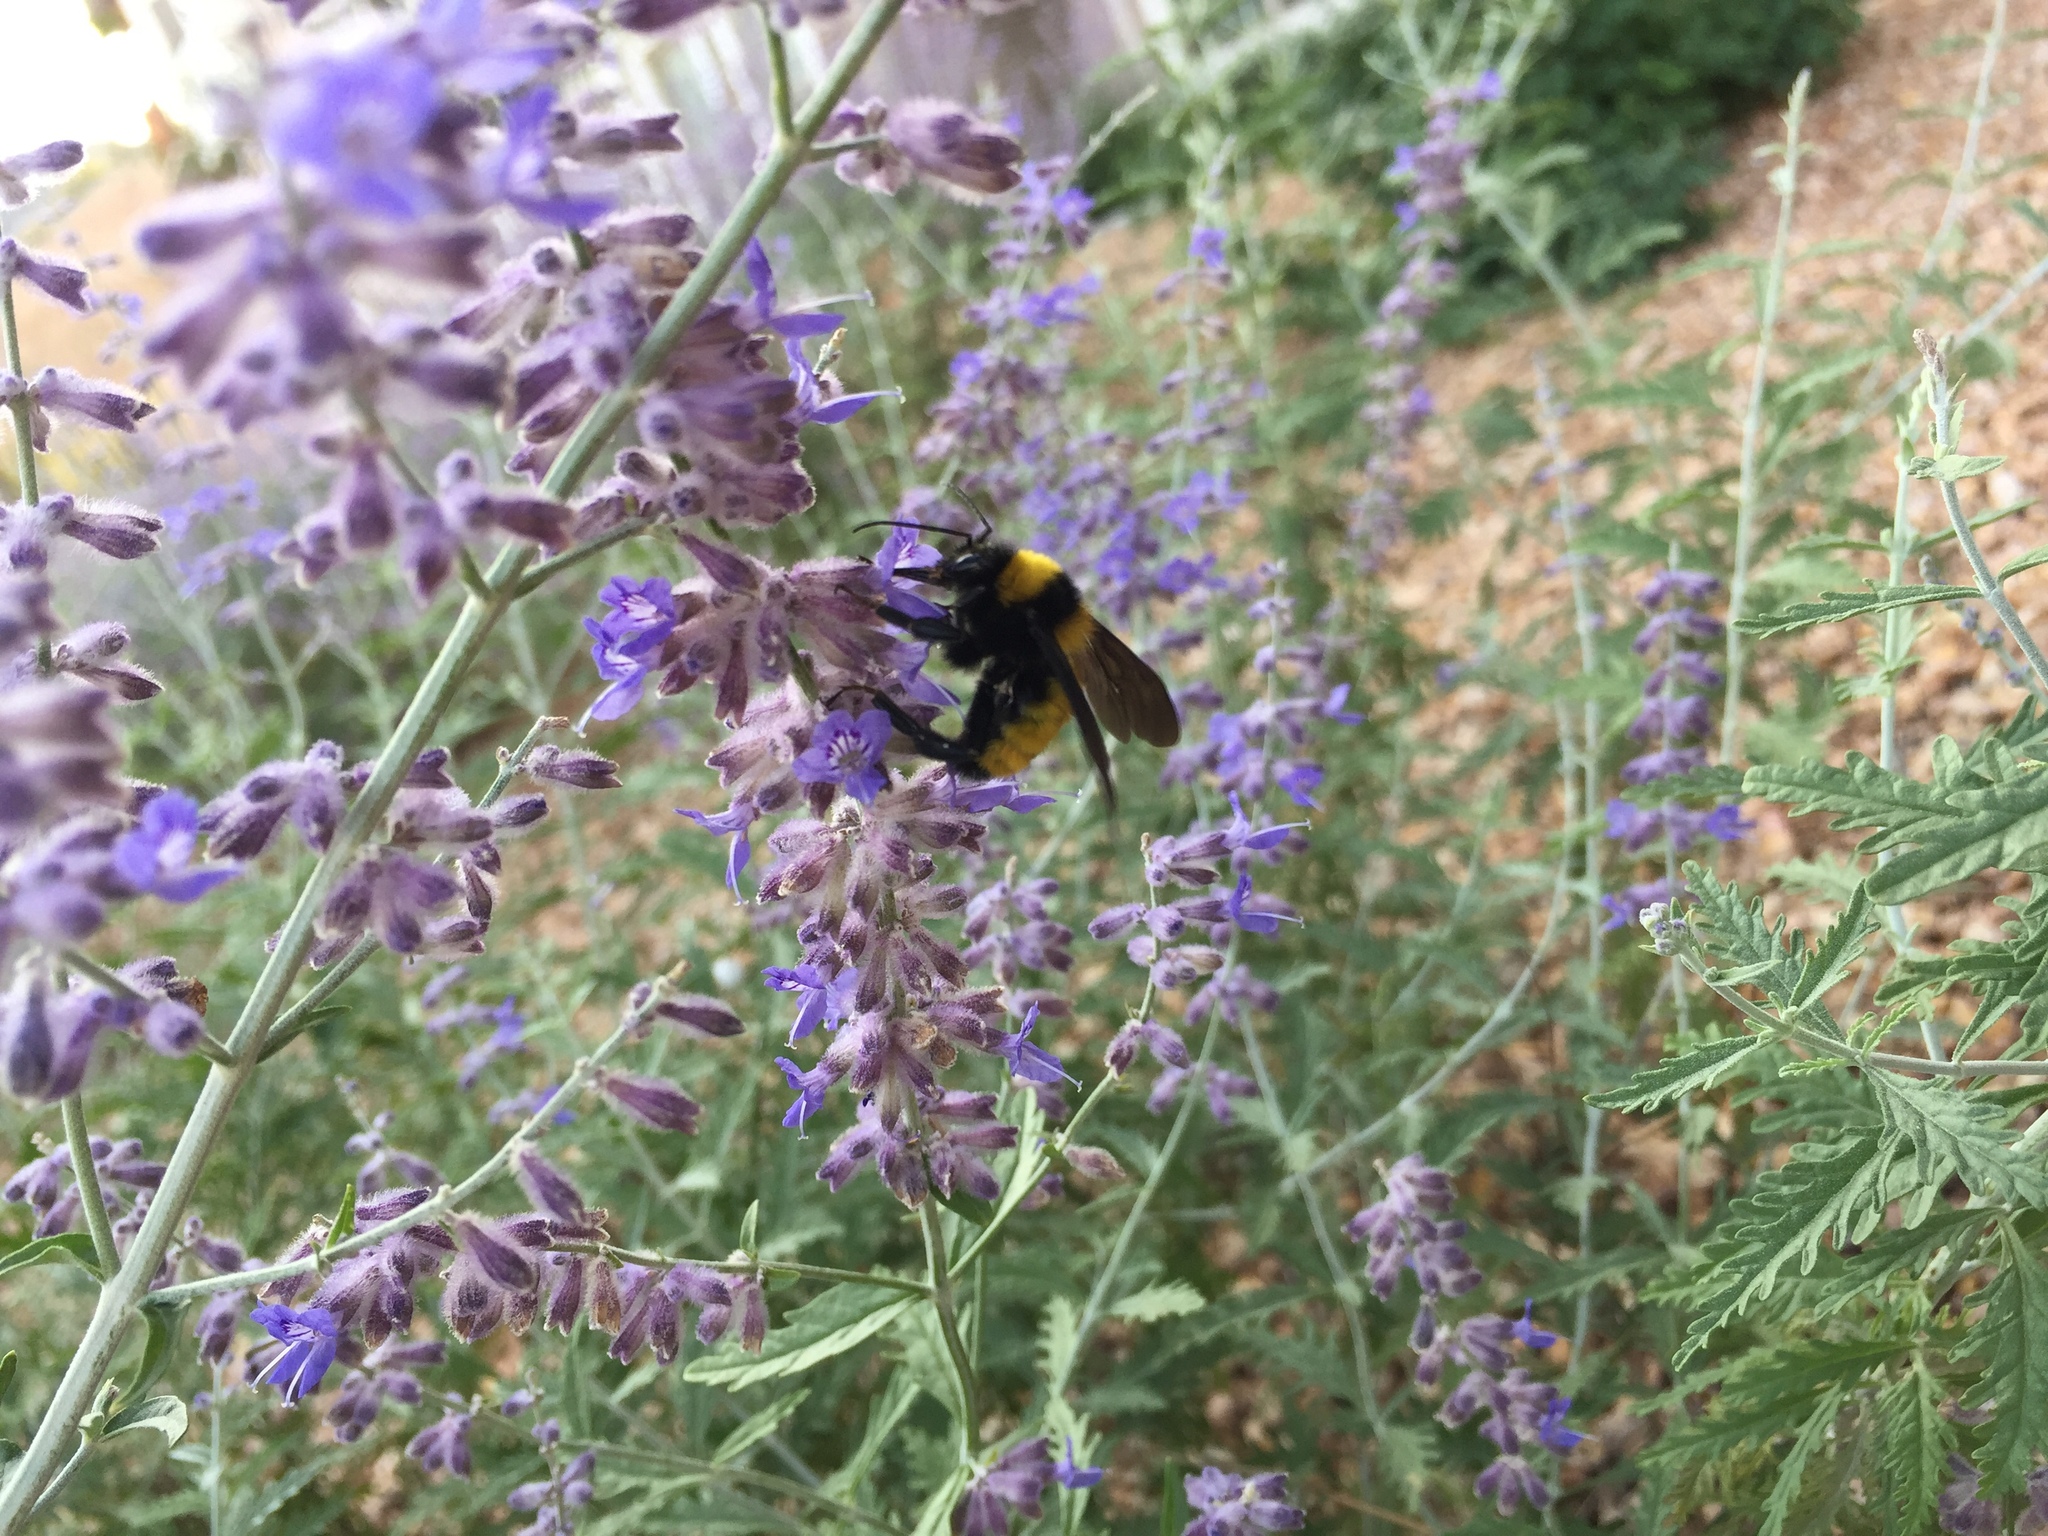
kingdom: Animalia
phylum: Arthropoda
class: Insecta
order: Hymenoptera
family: Apidae
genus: Bombus
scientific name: Bombus sonorus
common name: Sonoran bumble bee
